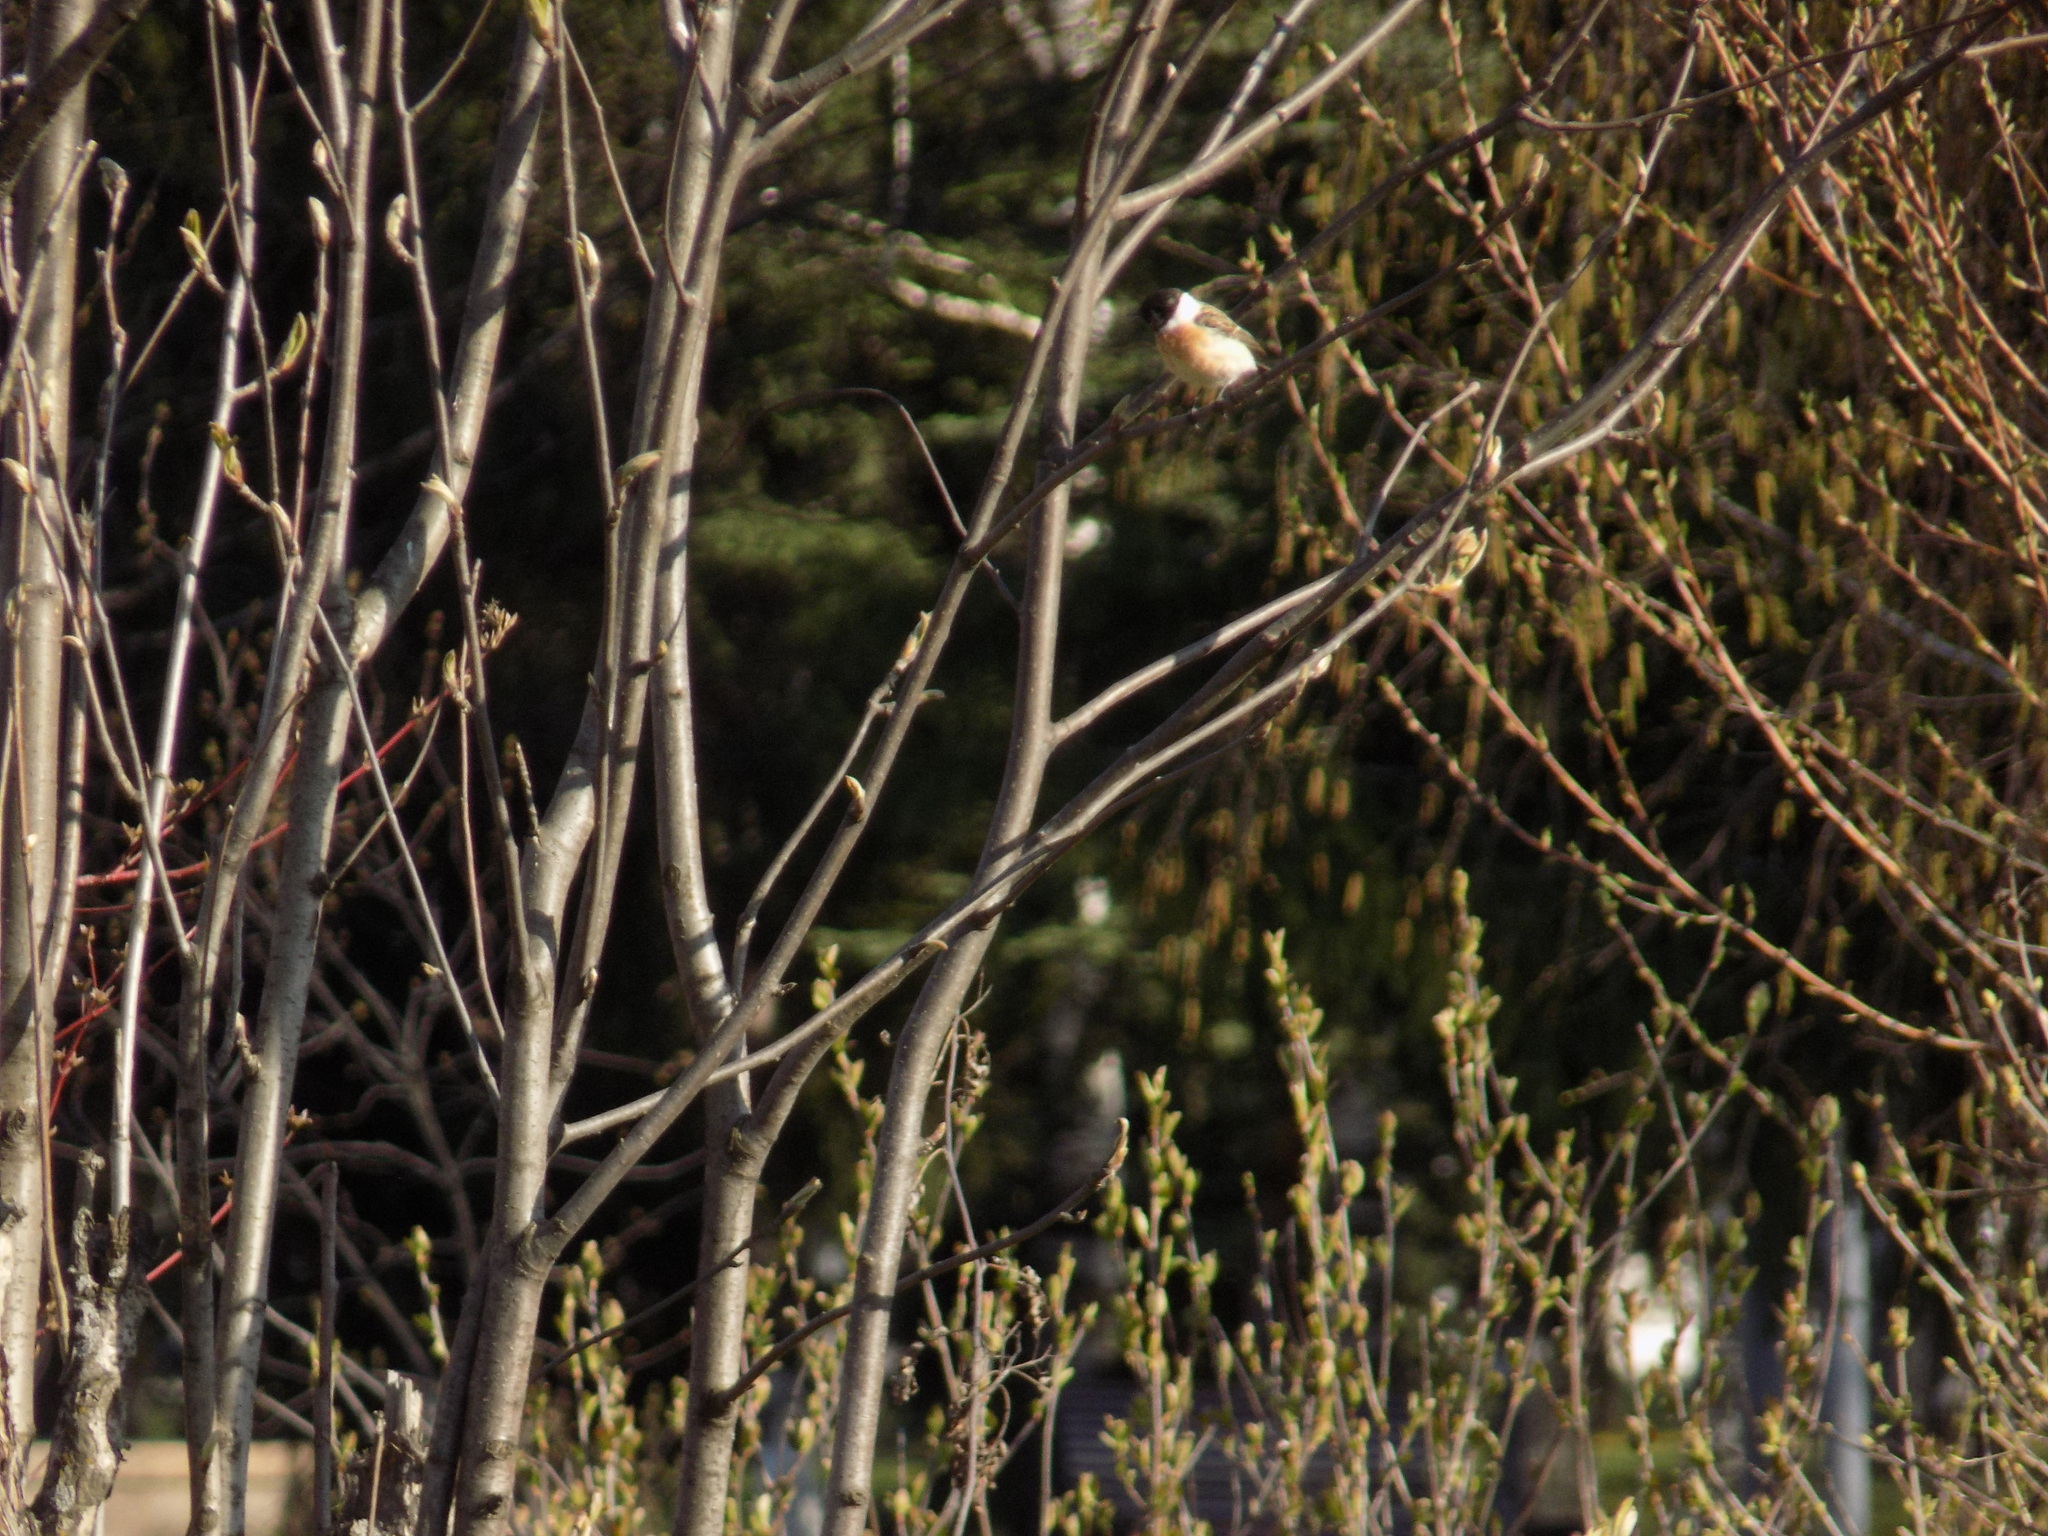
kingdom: Animalia
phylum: Chordata
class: Aves
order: Passeriformes
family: Muscicapidae
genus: Saxicola
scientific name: Saxicola maurus
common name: Siberian stonechat
